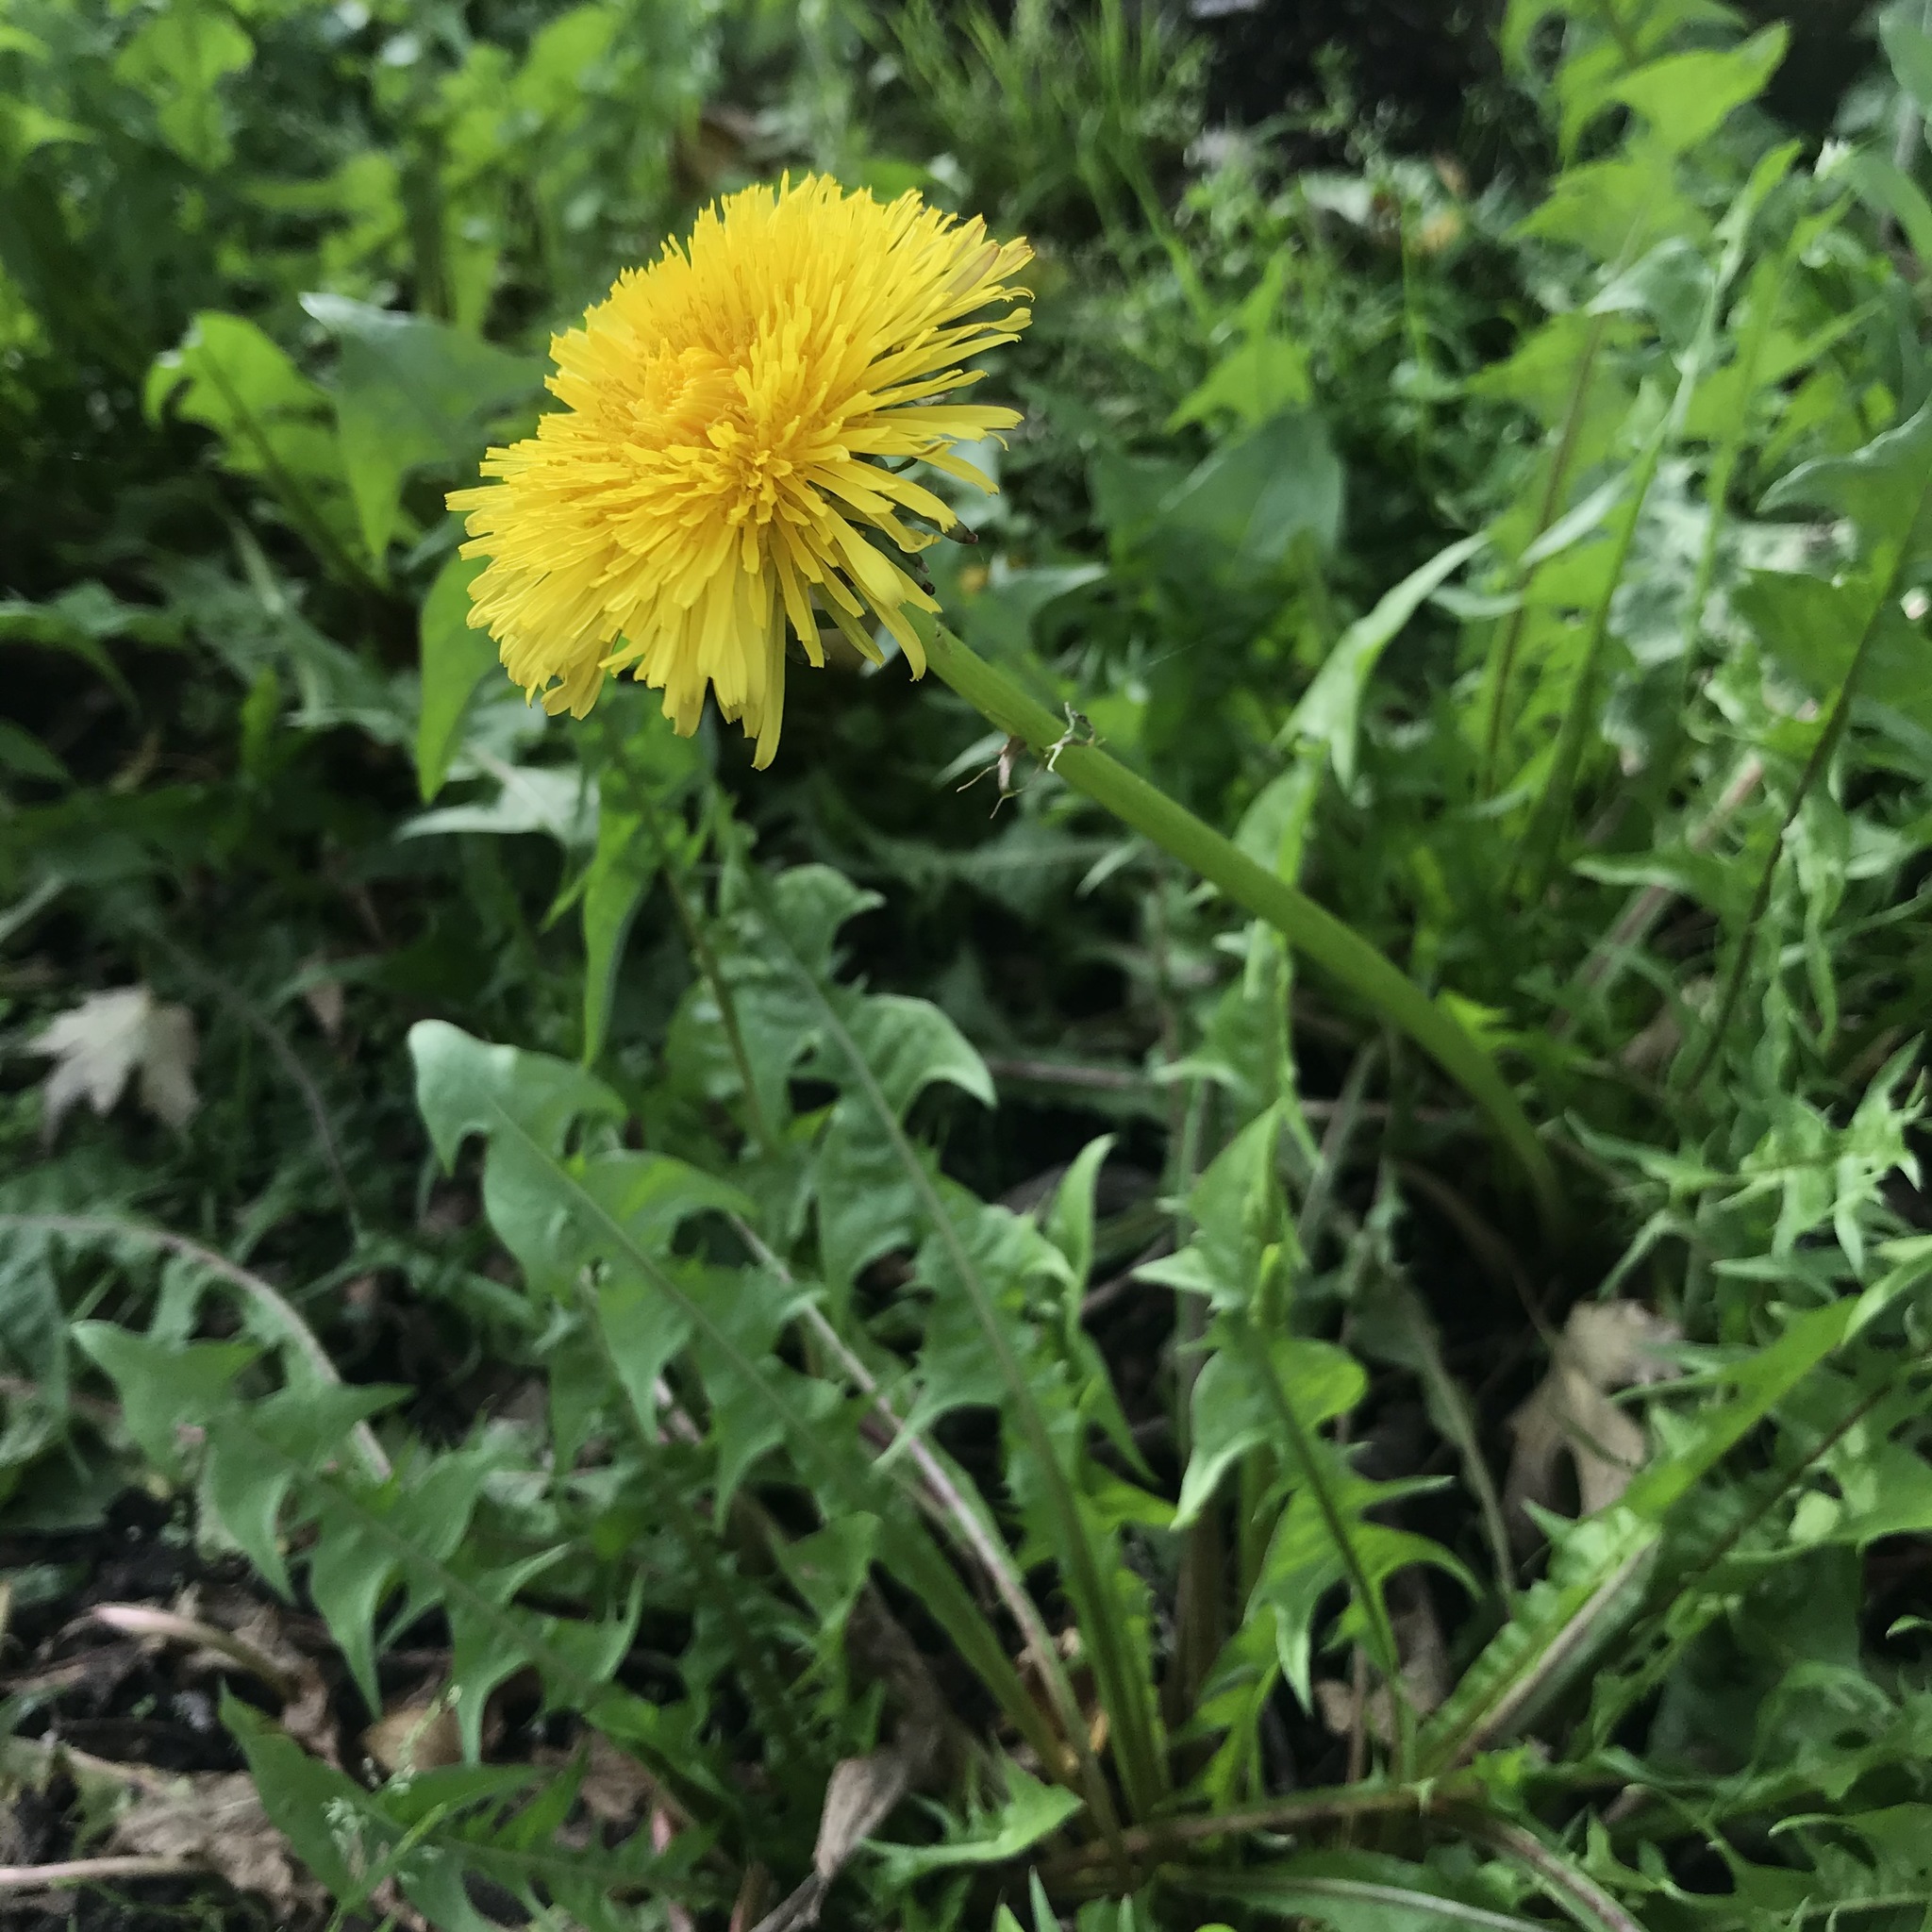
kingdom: Plantae
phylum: Tracheophyta
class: Magnoliopsida
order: Asterales
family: Asteraceae
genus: Taraxacum
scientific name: Taraxacum officinale
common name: Common dandelion
